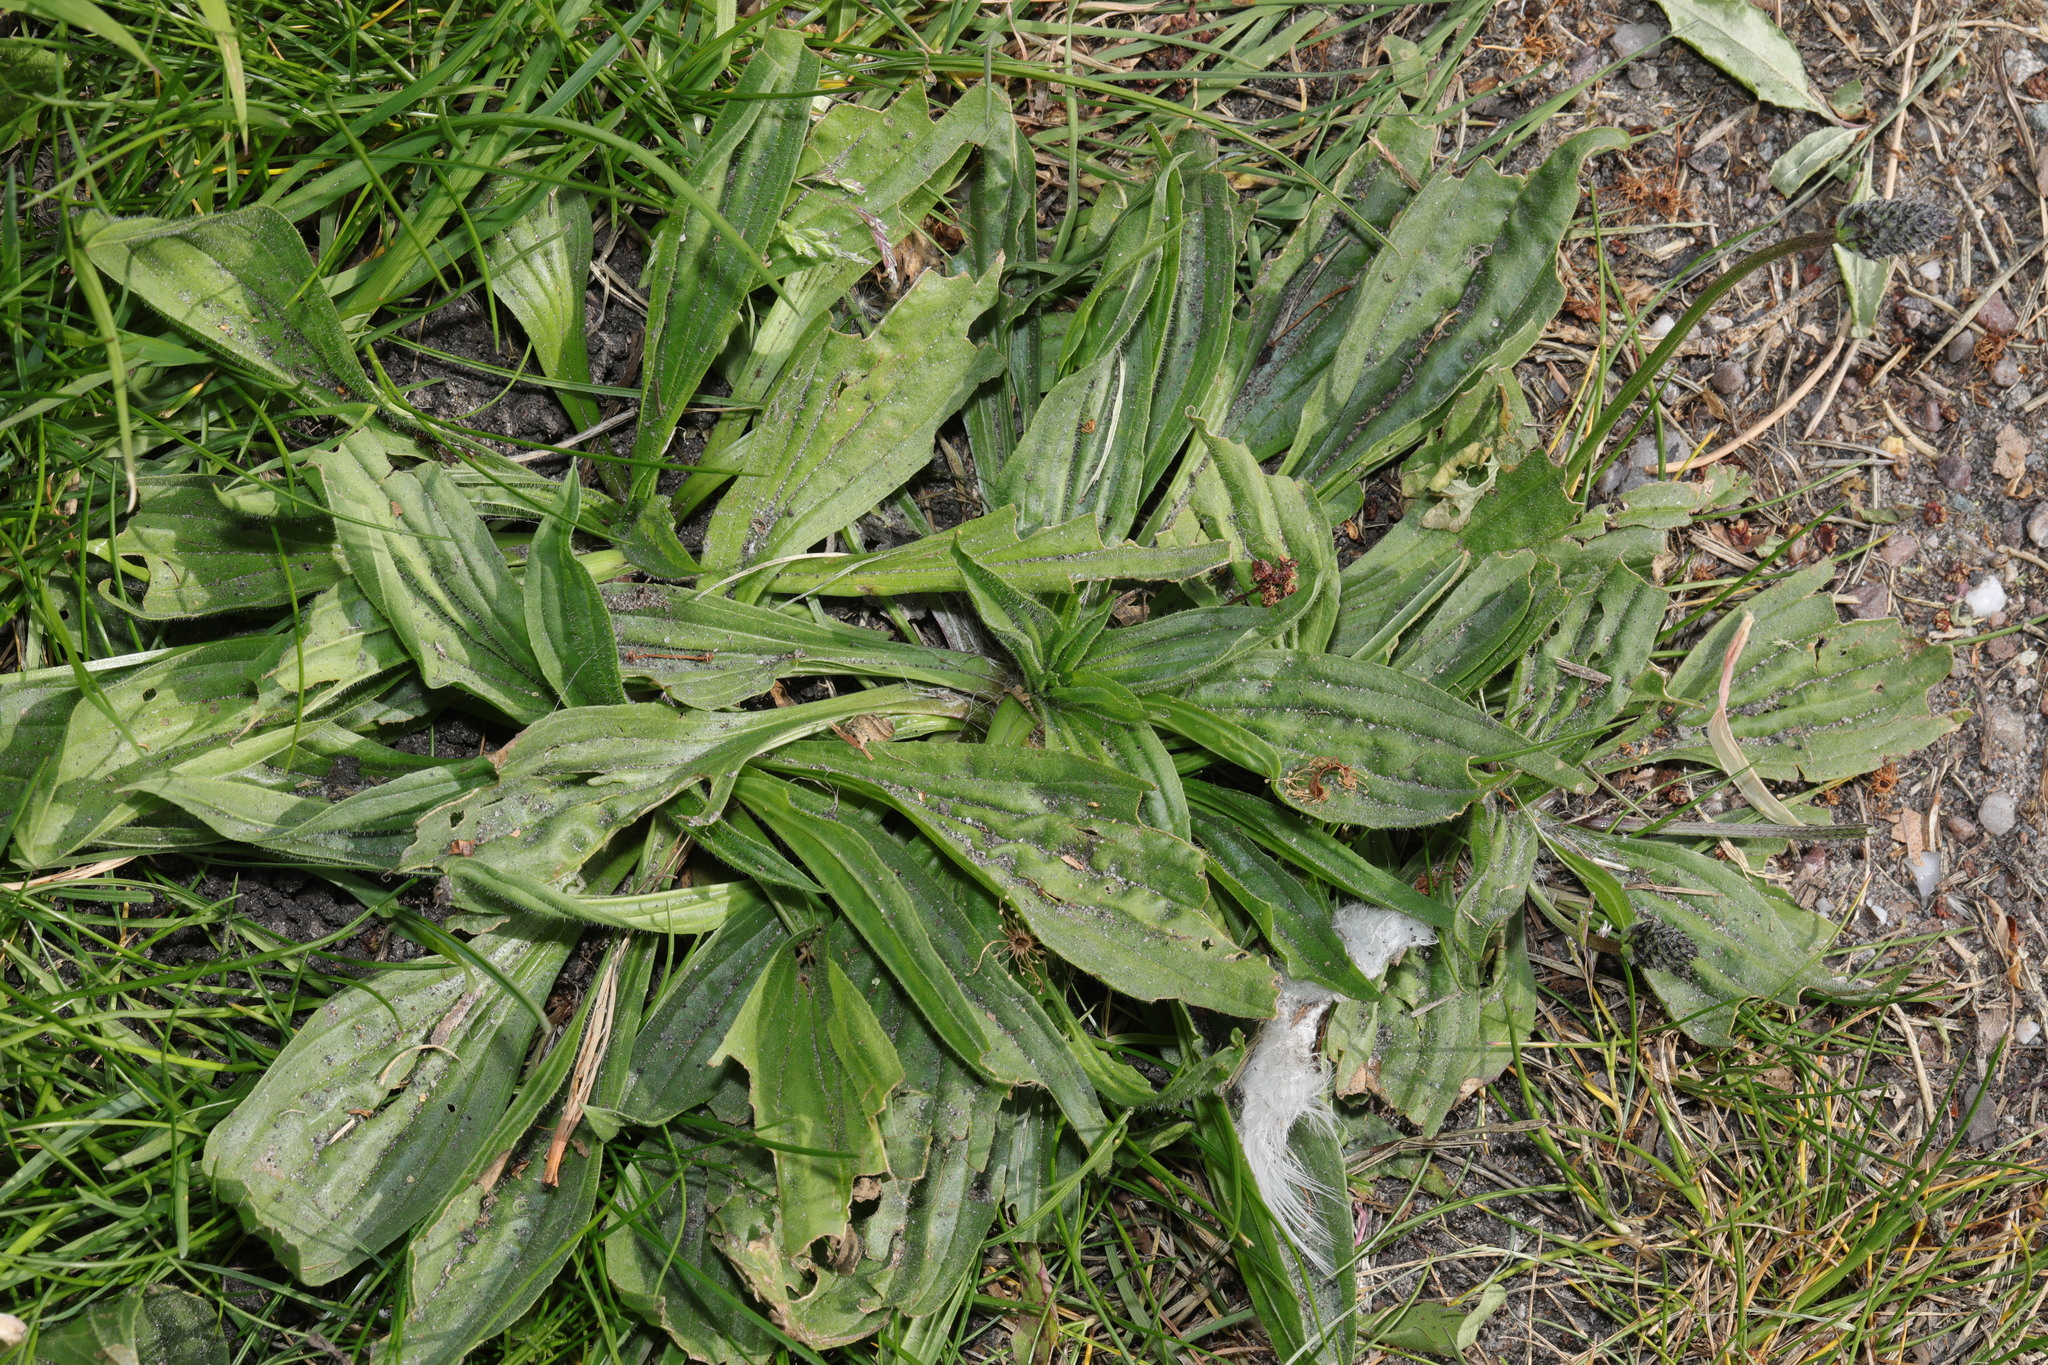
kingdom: Plantae
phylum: Tracheophyta
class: Magnoliopsida
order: Lamiales
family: Plantaginaceae
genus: Plantago
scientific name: Plantago lanceolata
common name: Ribwort plantain
